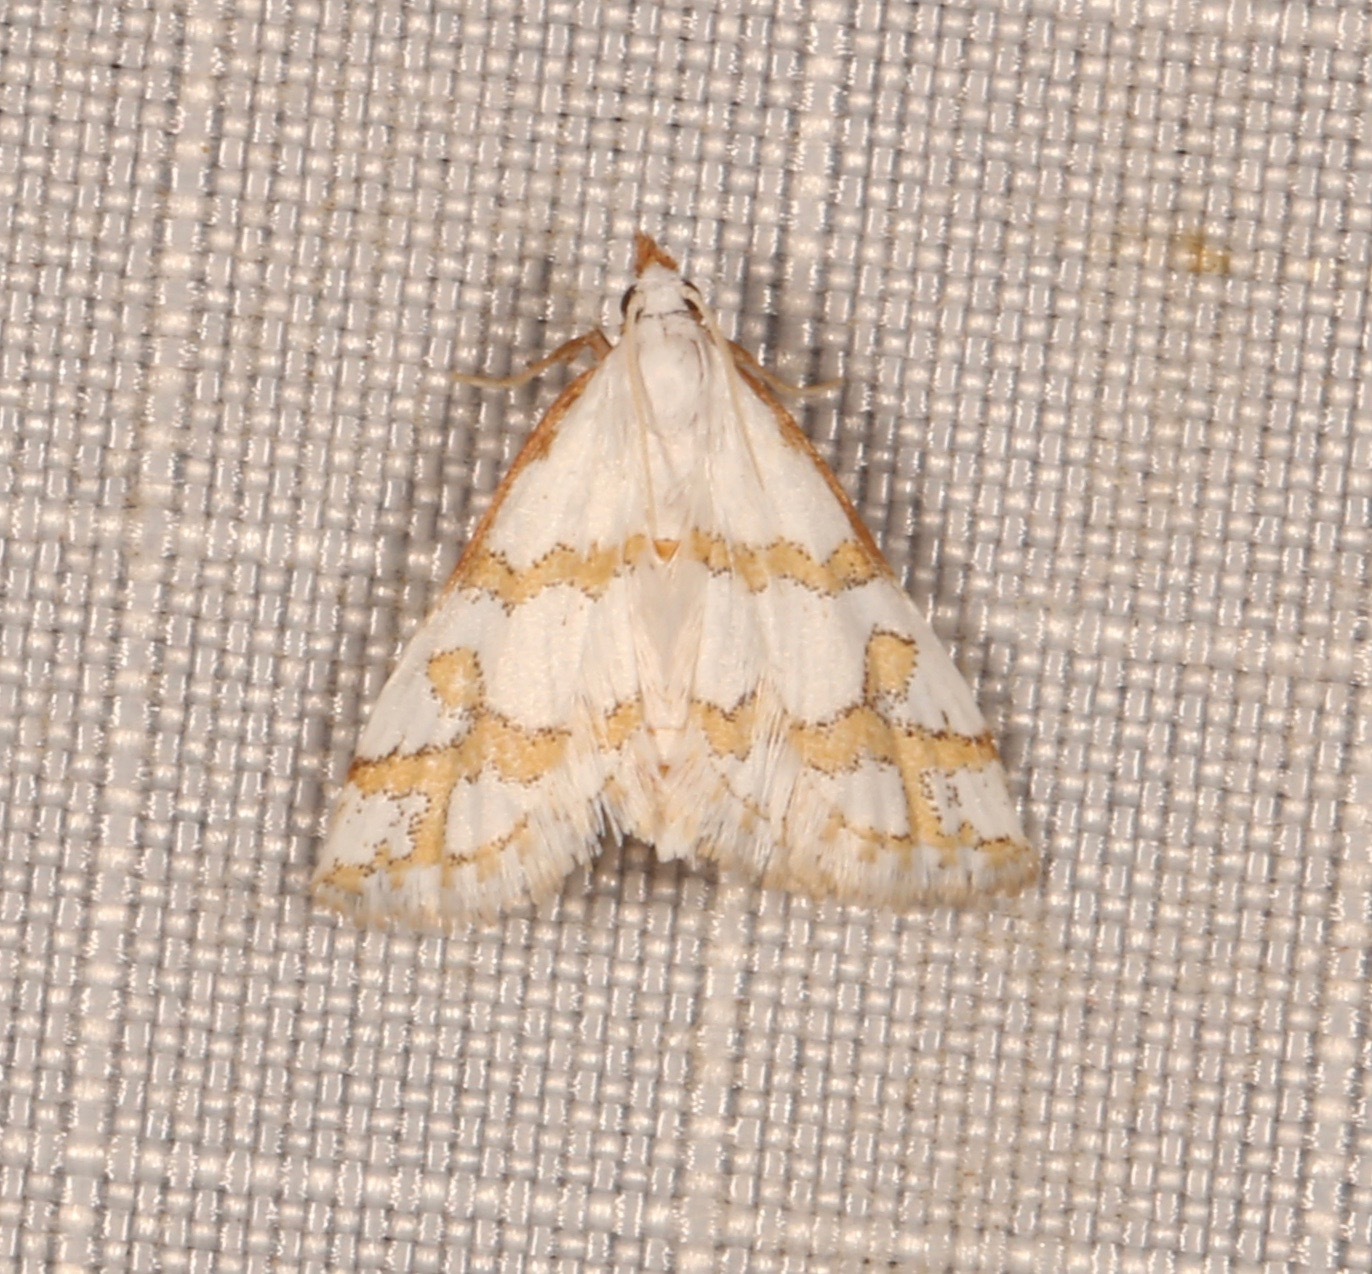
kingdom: Animalia
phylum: Arthropoda
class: Insecta
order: Lepidoptera
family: Crambidae
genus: Leptosteges
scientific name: Leptosteges
